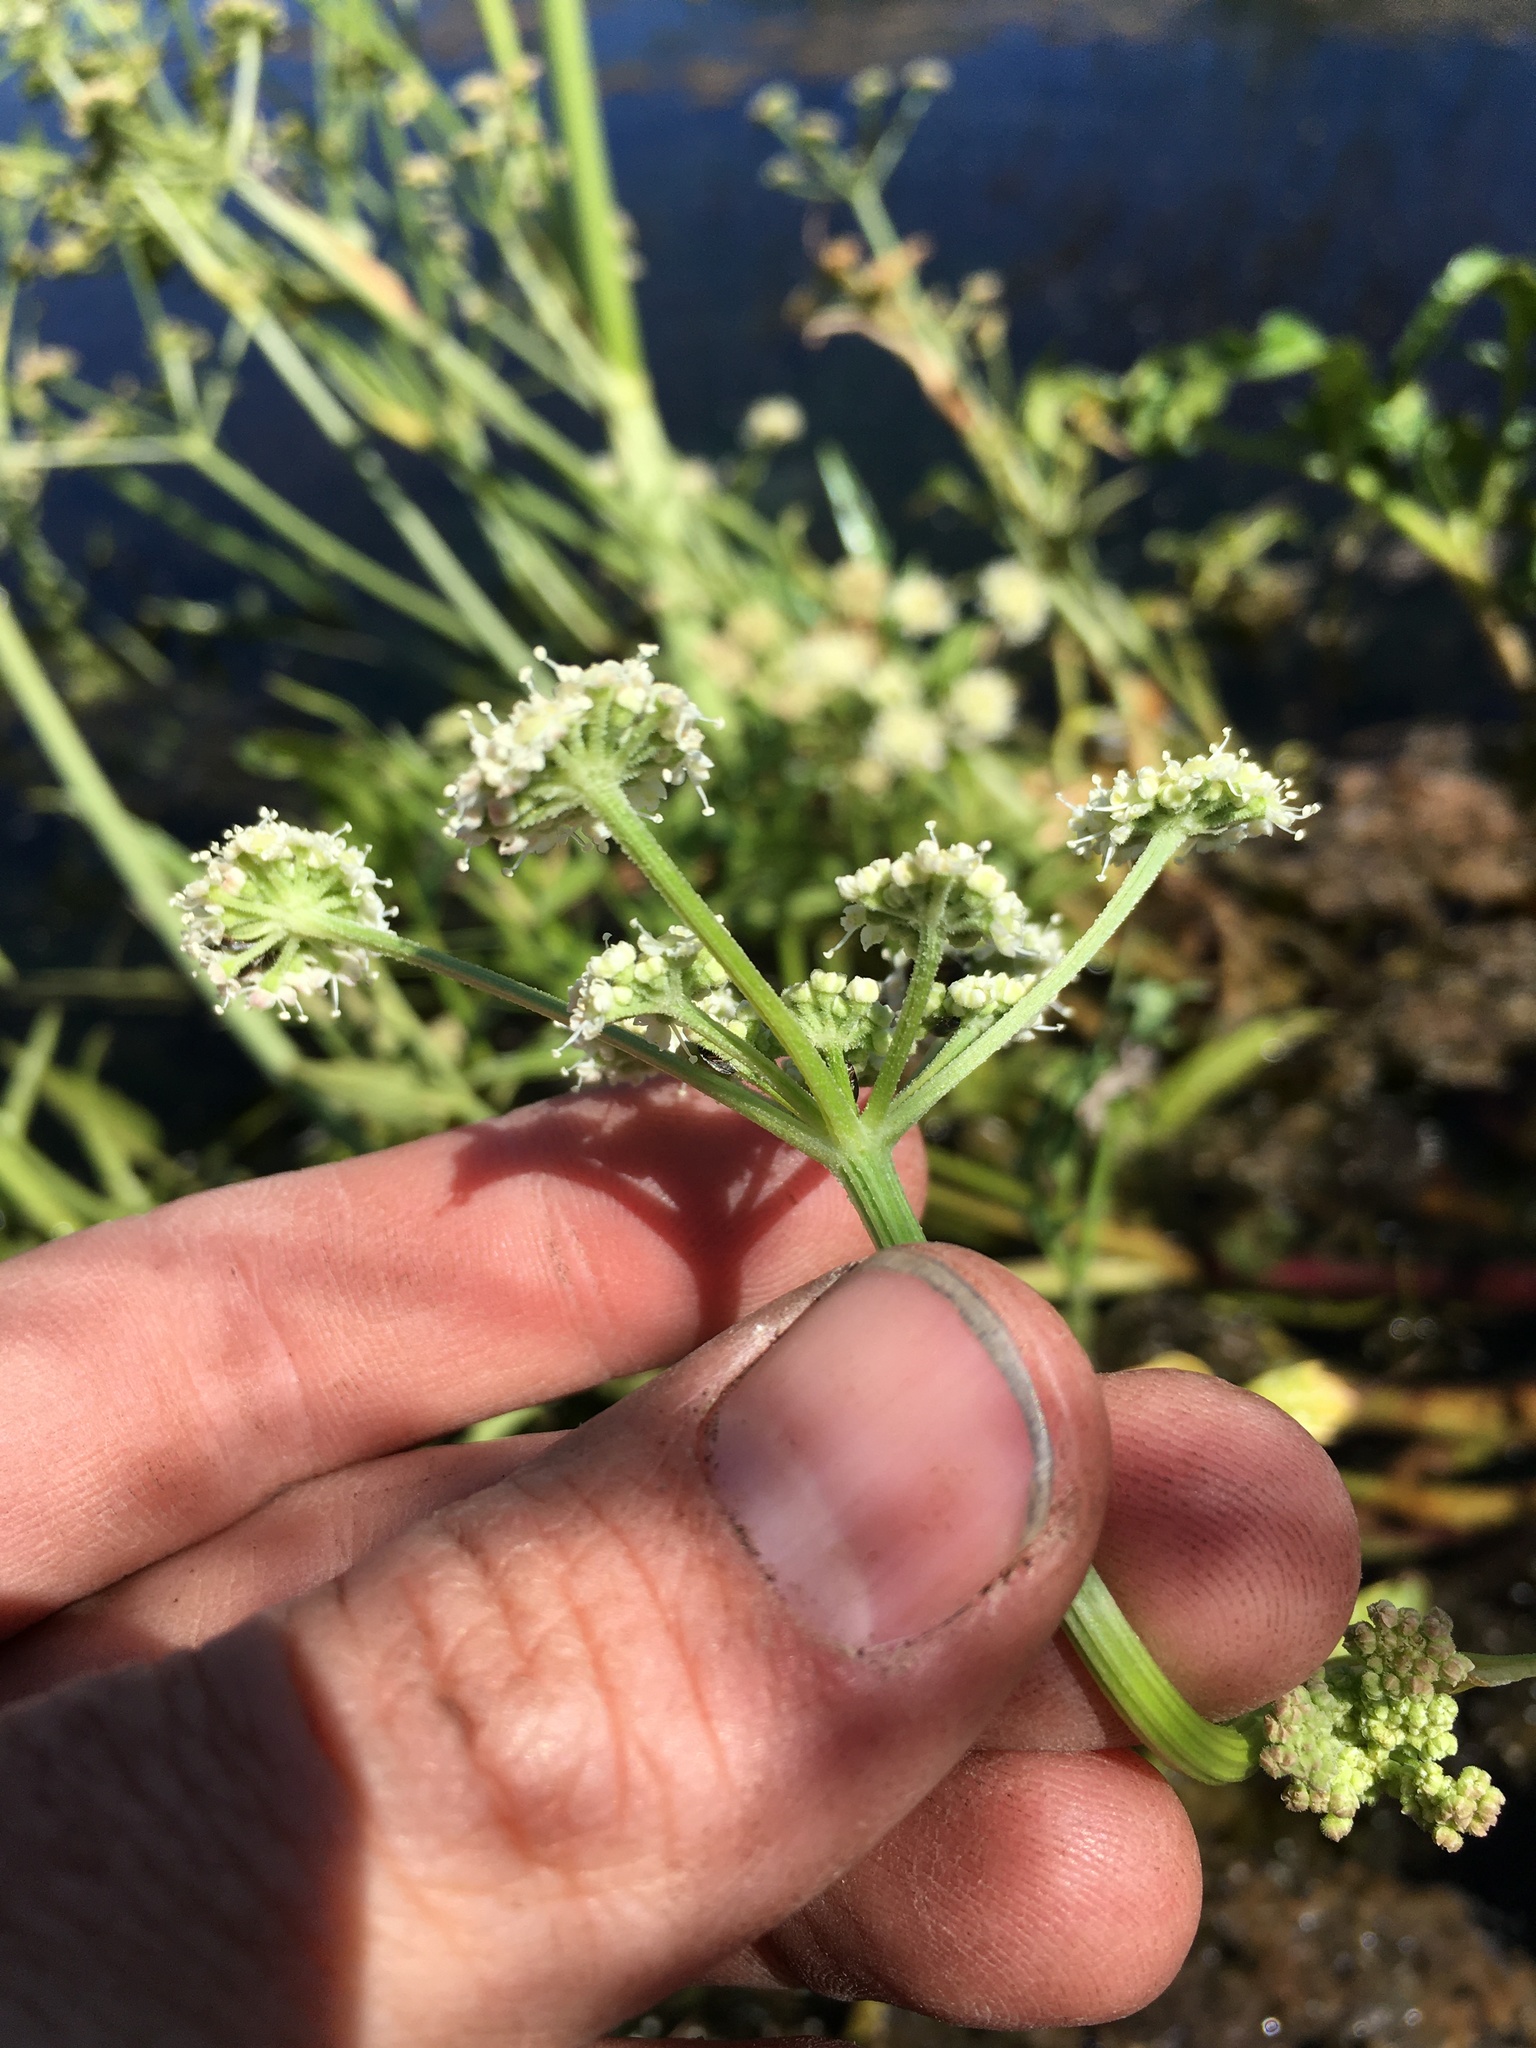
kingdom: Plantae
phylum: Tracheophyta
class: Magnoliopsida
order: Apiales
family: Apiaceae
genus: Angelica
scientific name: Angelica kingii
